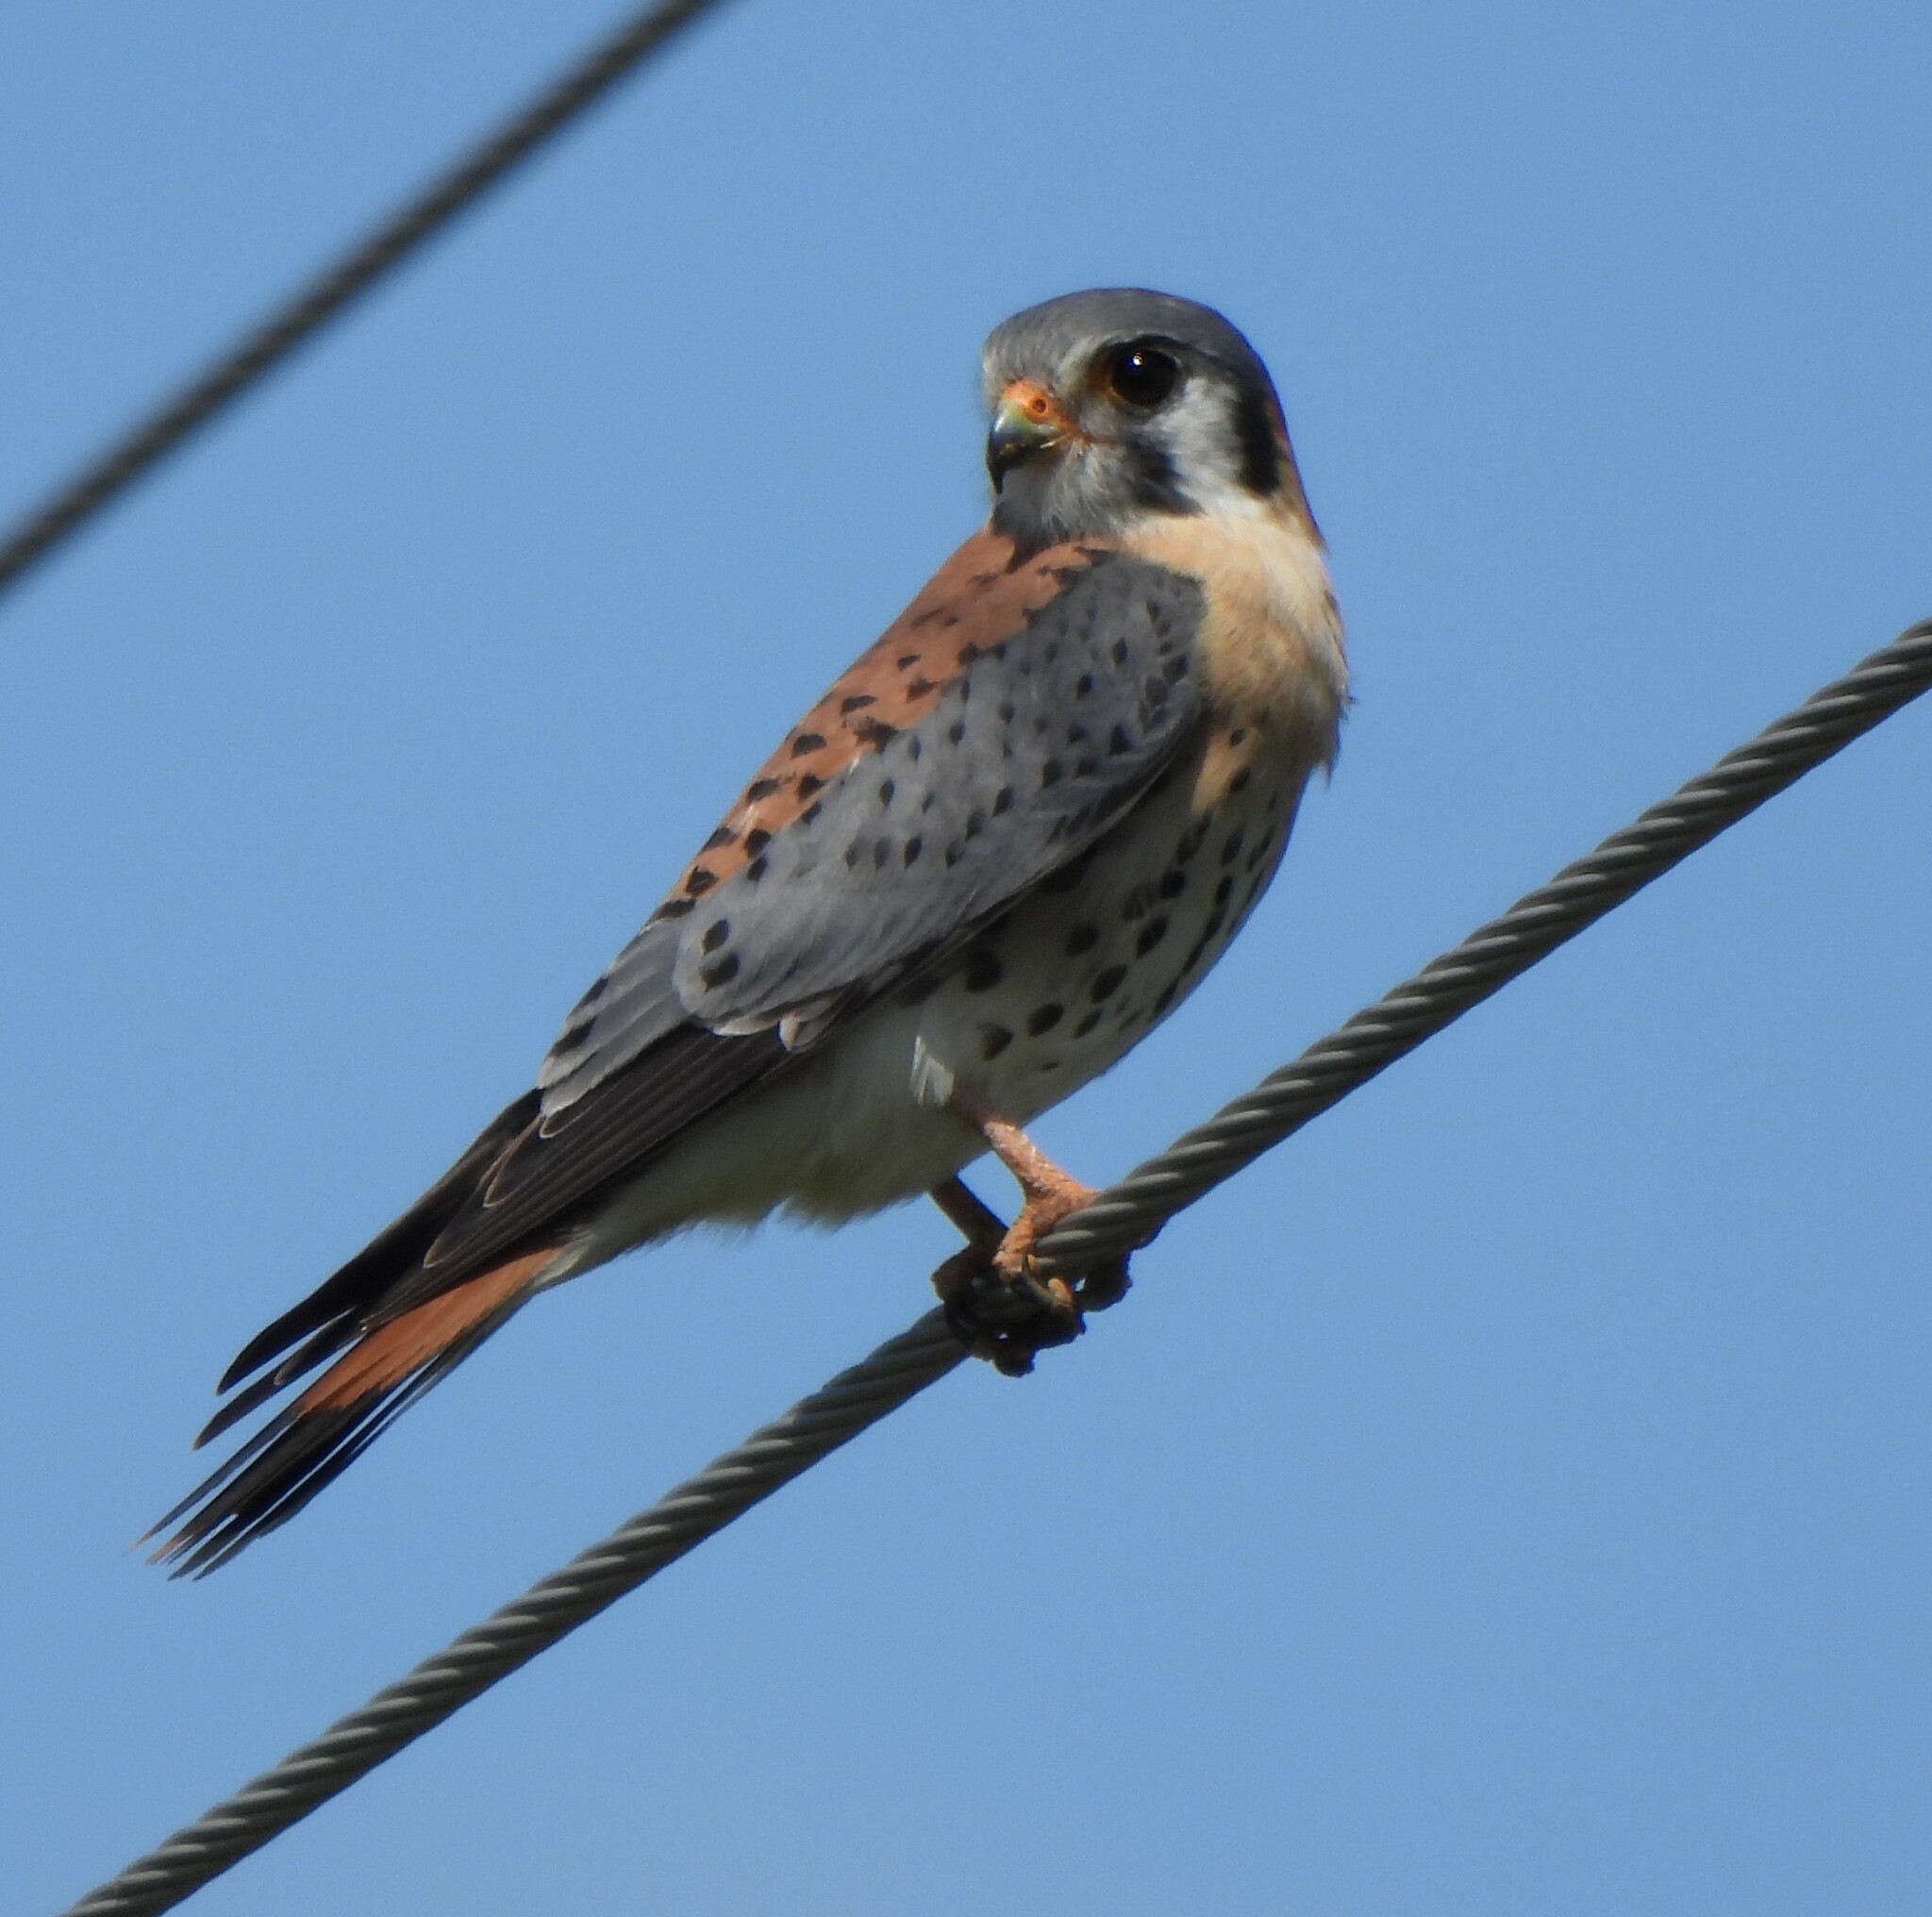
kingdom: Animalia
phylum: Chordata
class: Aves
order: Falconiformes
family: Falconidae
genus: Falco
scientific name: Falco sparverius
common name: American kestrel
